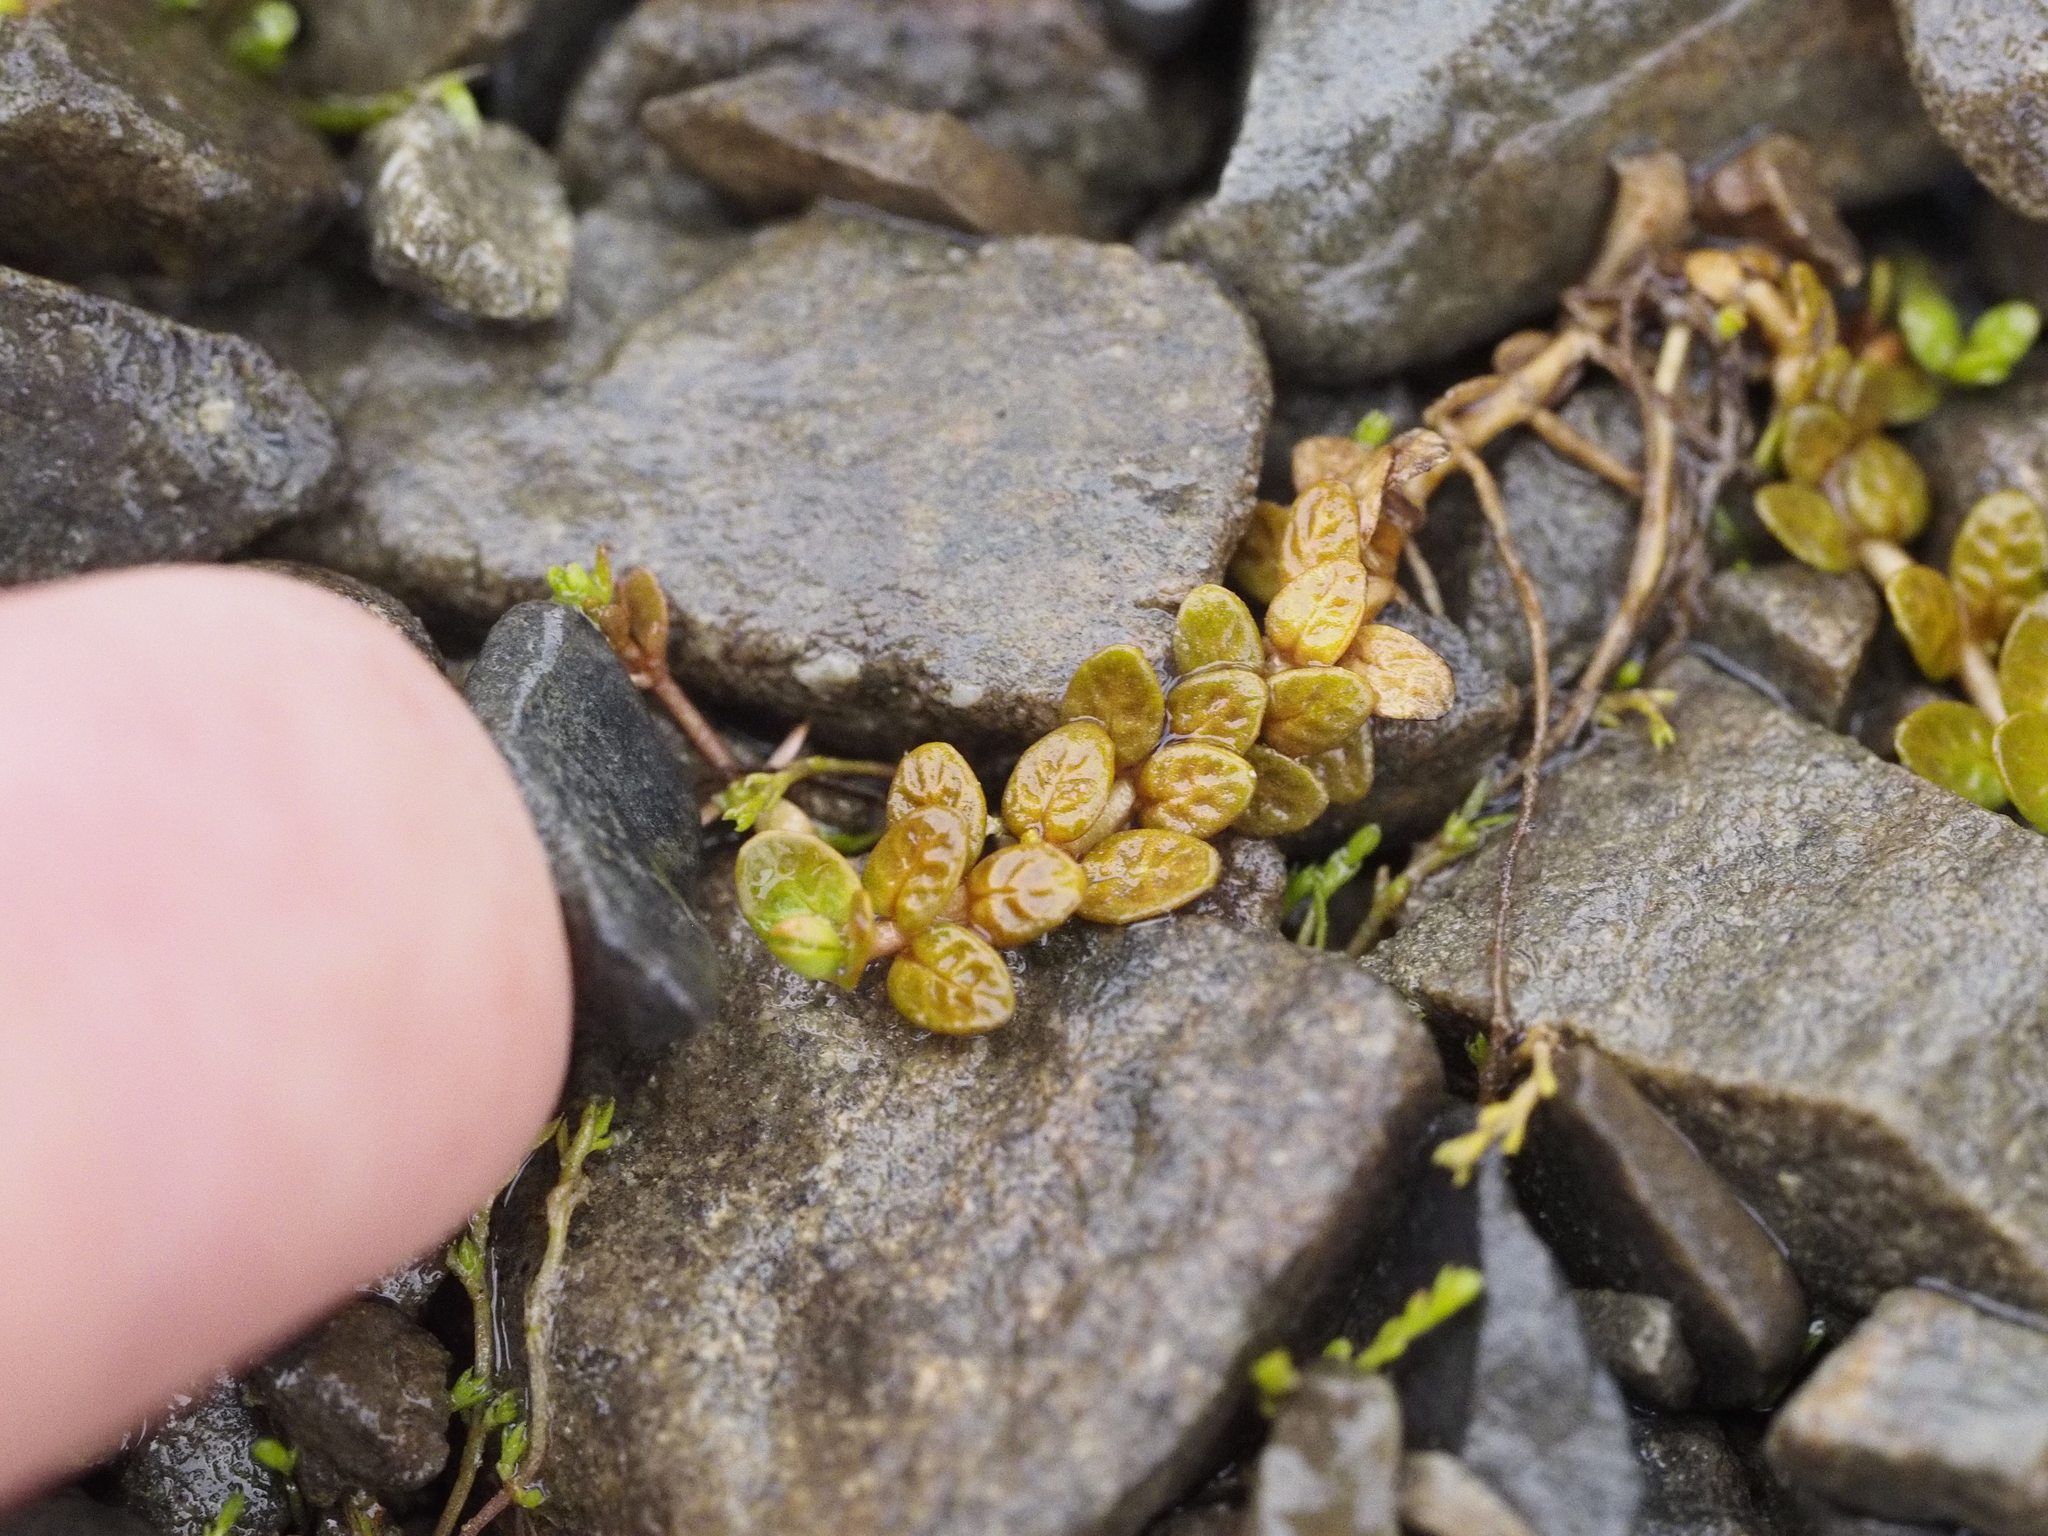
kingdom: Plantae
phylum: Tracheophyta
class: Magnoliopsida
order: Myrtales
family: Onagraceae
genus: Epilobium
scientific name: Epilobium komarovianum
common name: Bronzy willowherb
